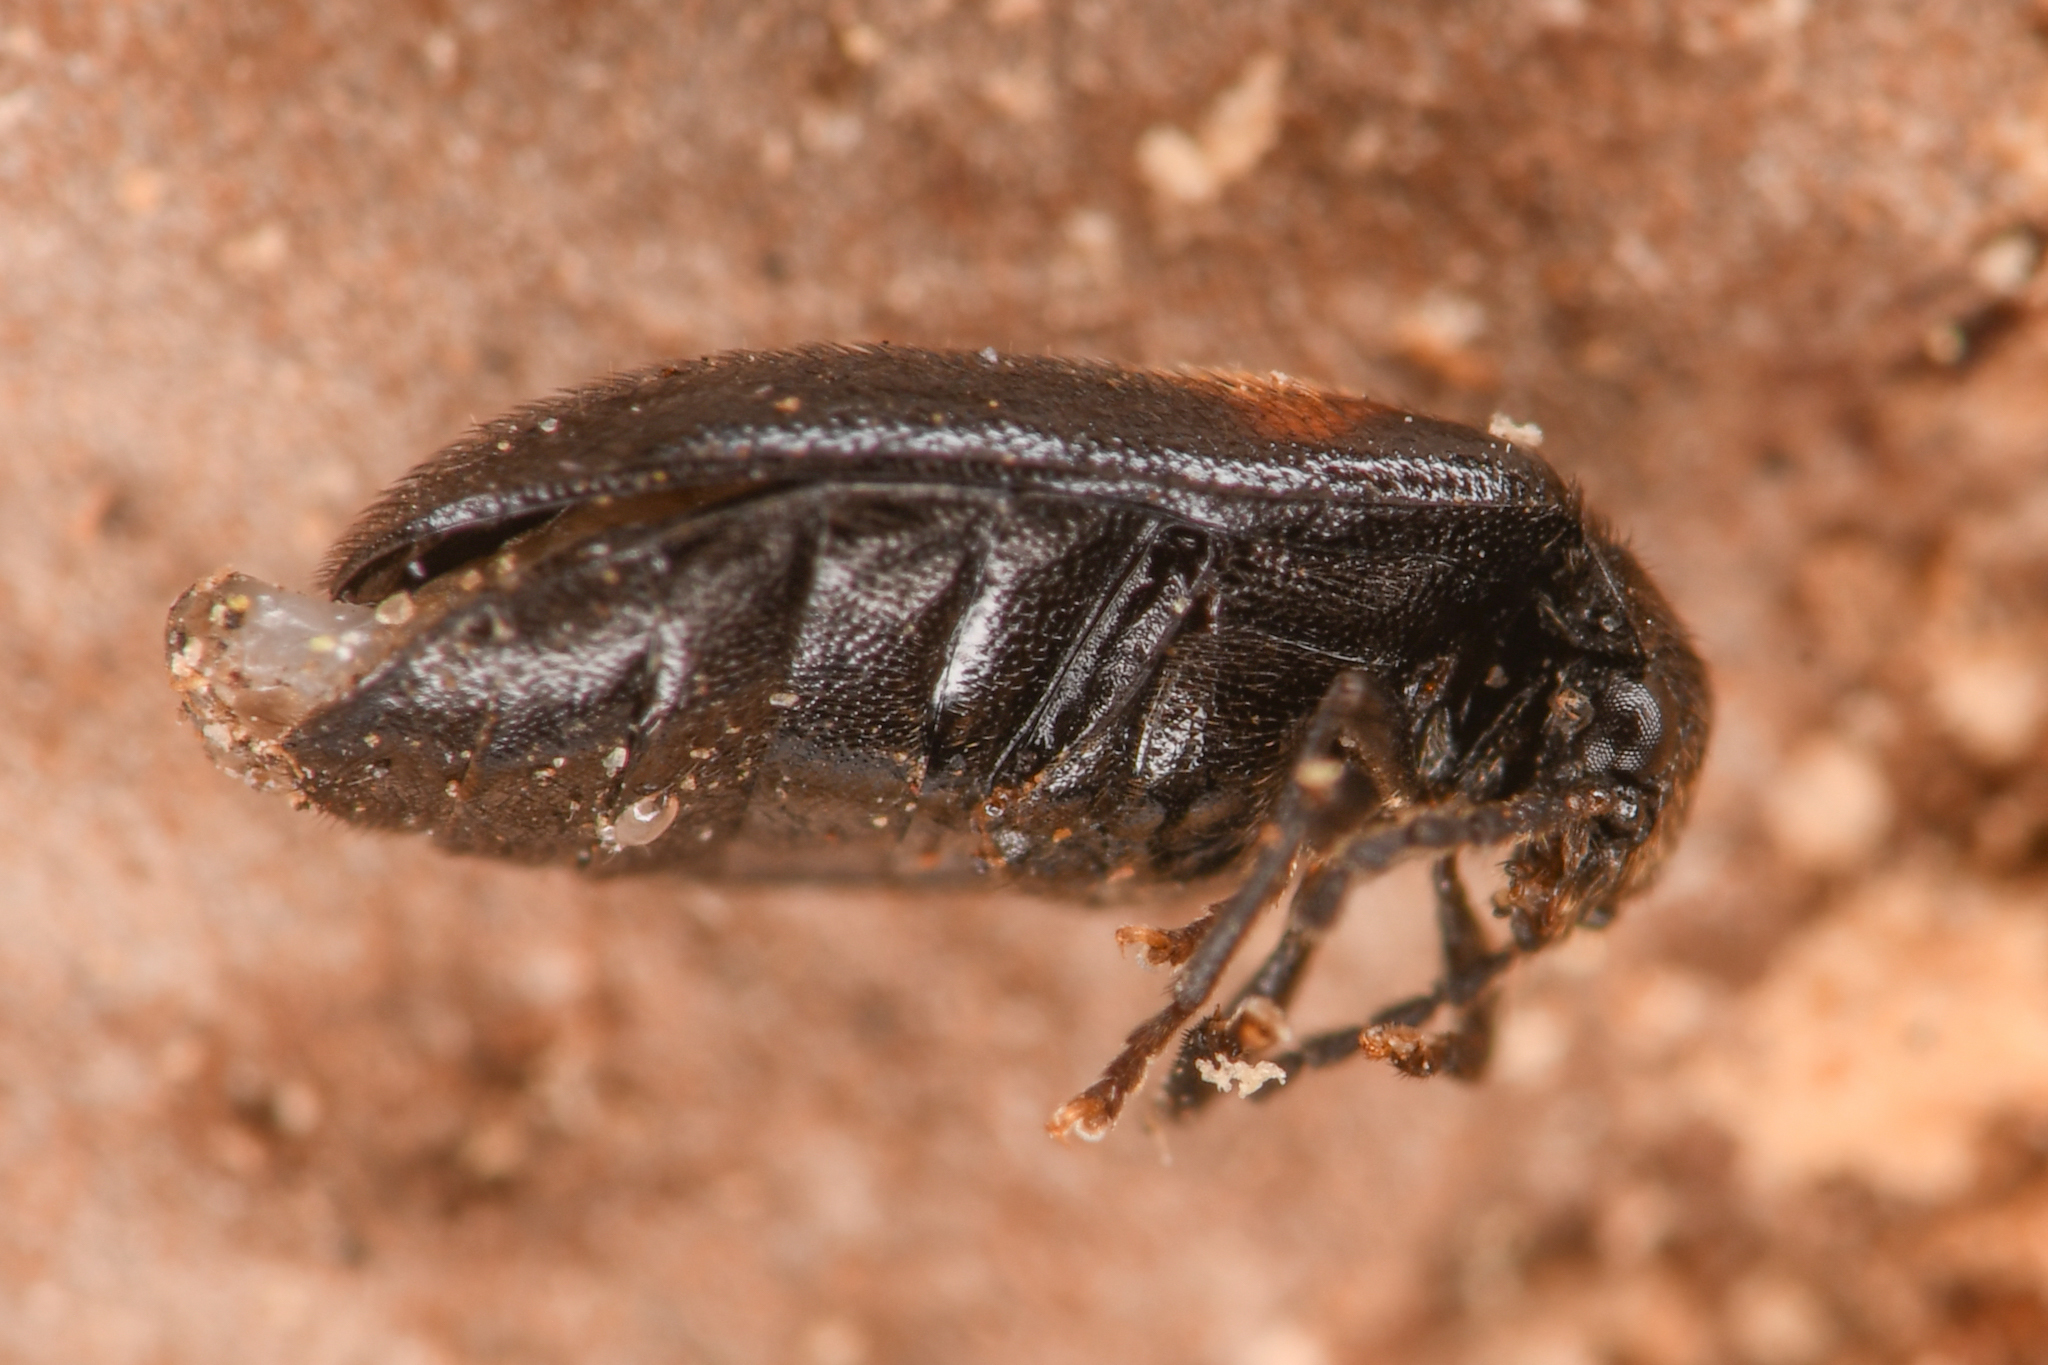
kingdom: Animalia
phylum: Arthropoda
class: Insecta
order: Coleoptera
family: Scirtidae
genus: Cyphon
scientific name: Cyphon concinnus
